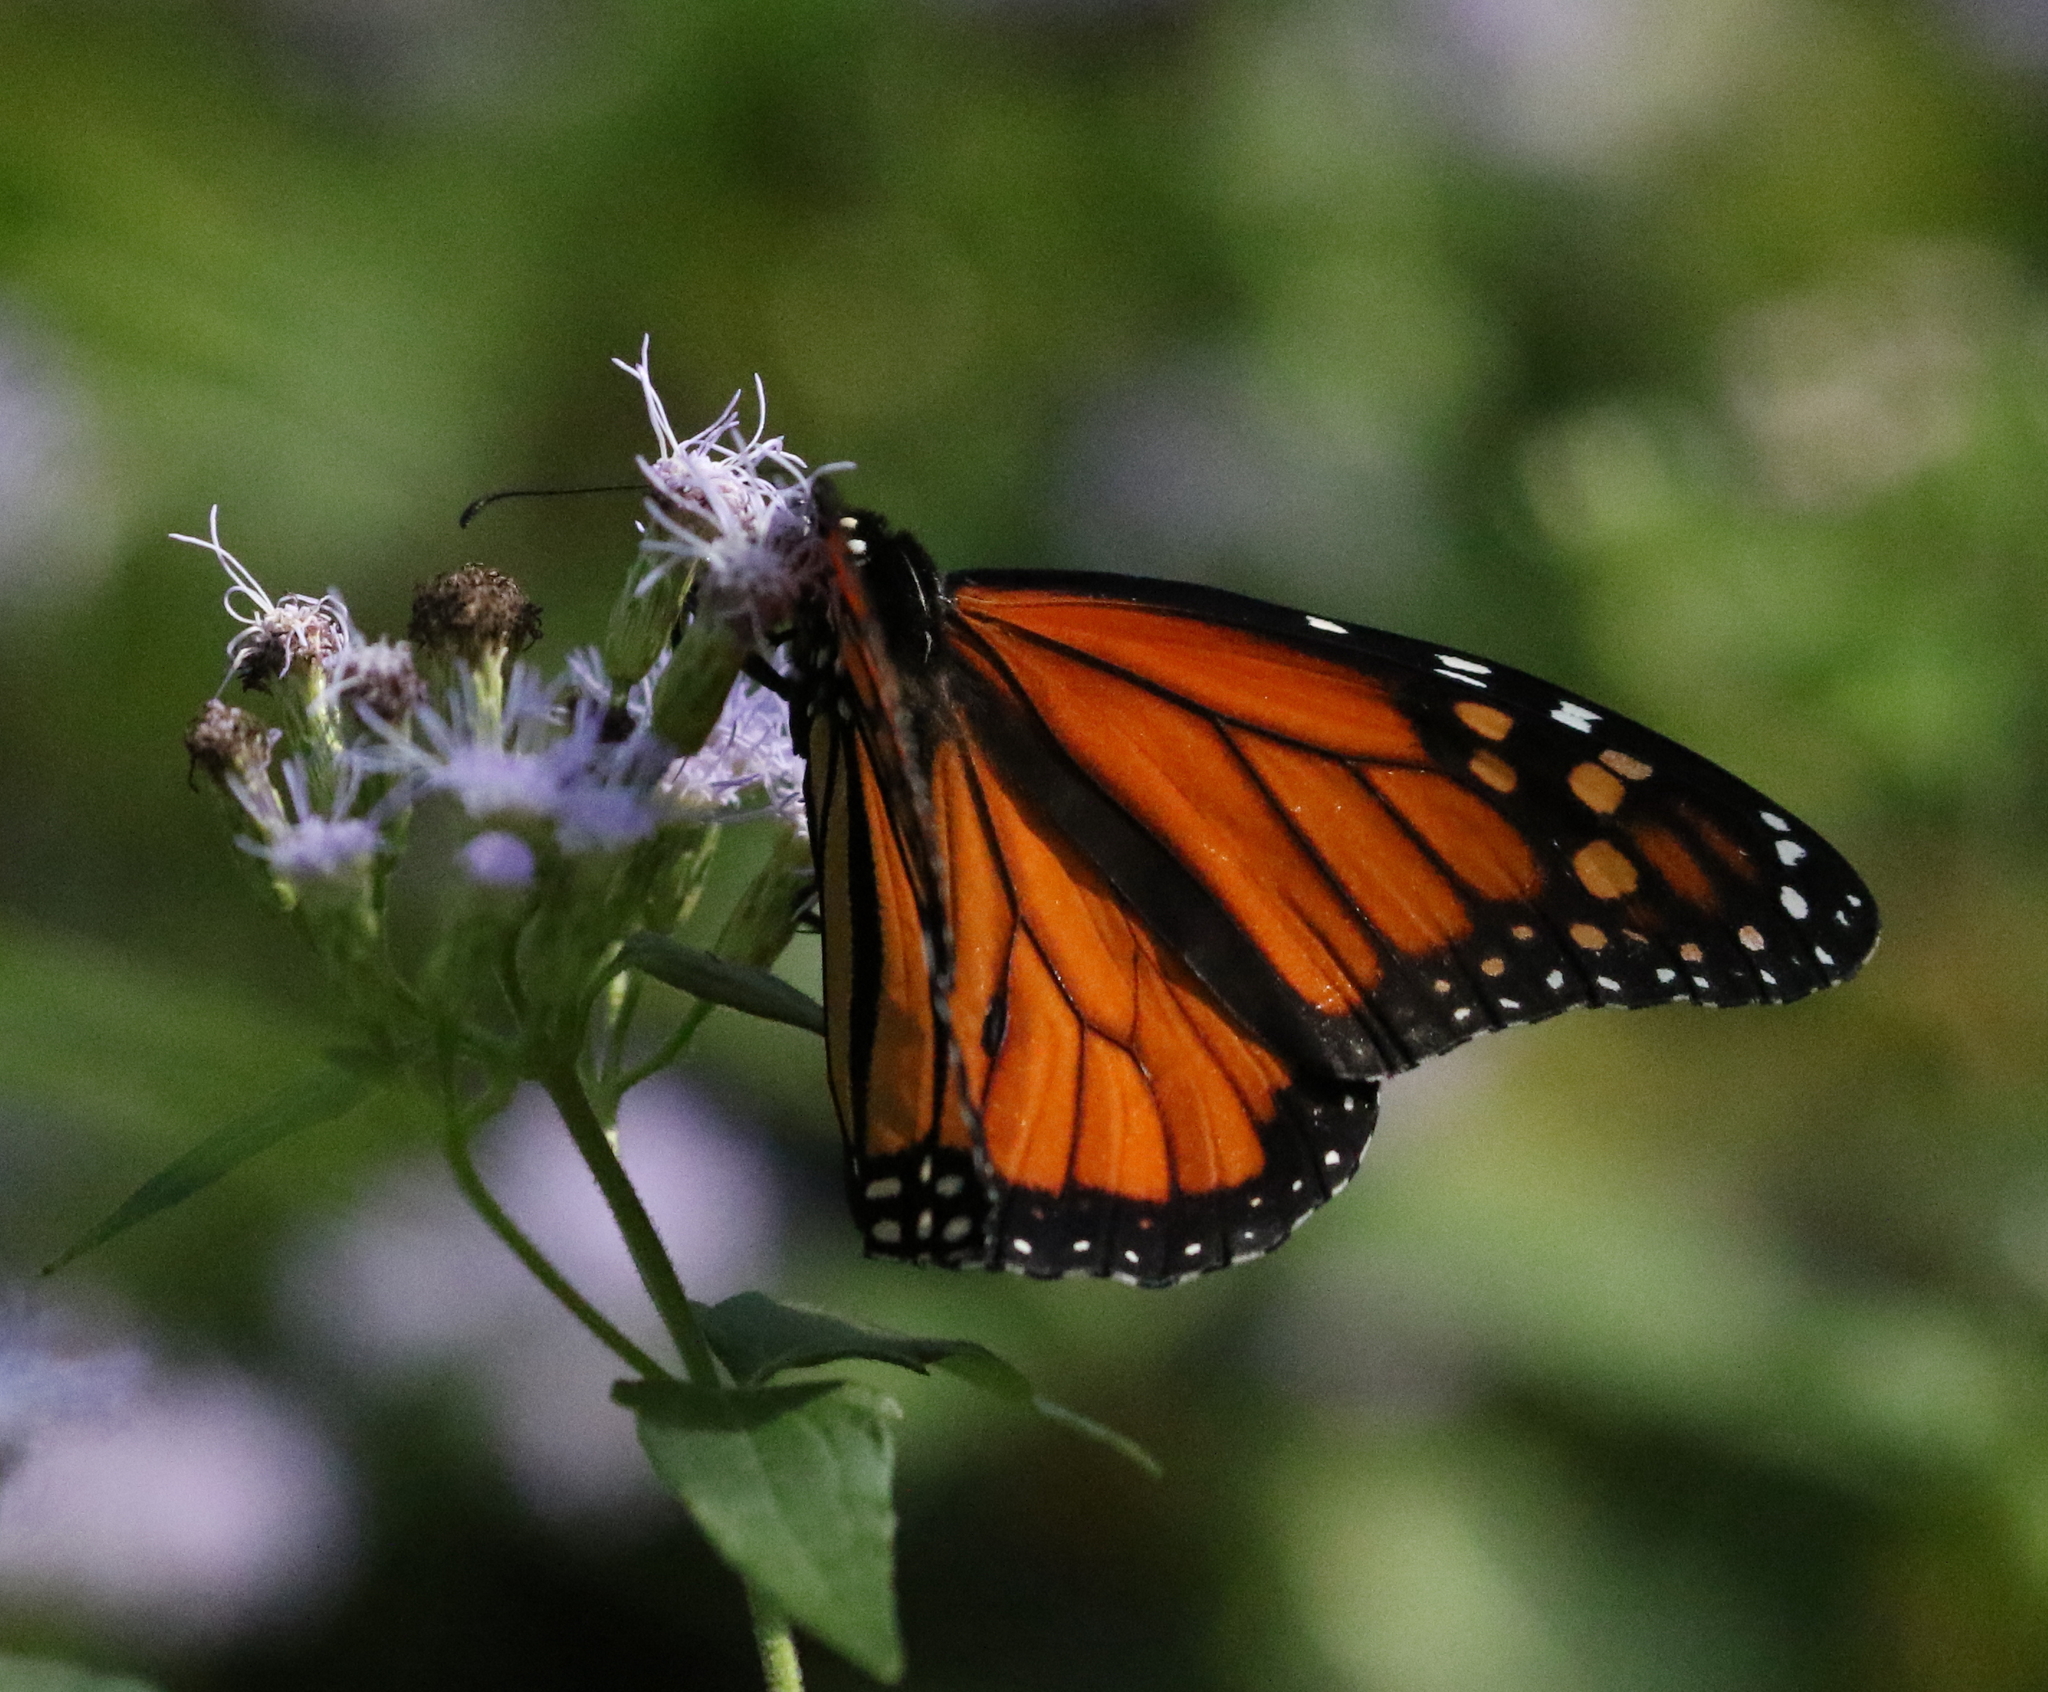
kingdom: Animalia
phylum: Arthropoda
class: Insecta
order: Lepidoptera
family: Nymphalidae
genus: Danaus
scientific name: Danaus plexippus
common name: Monarch
